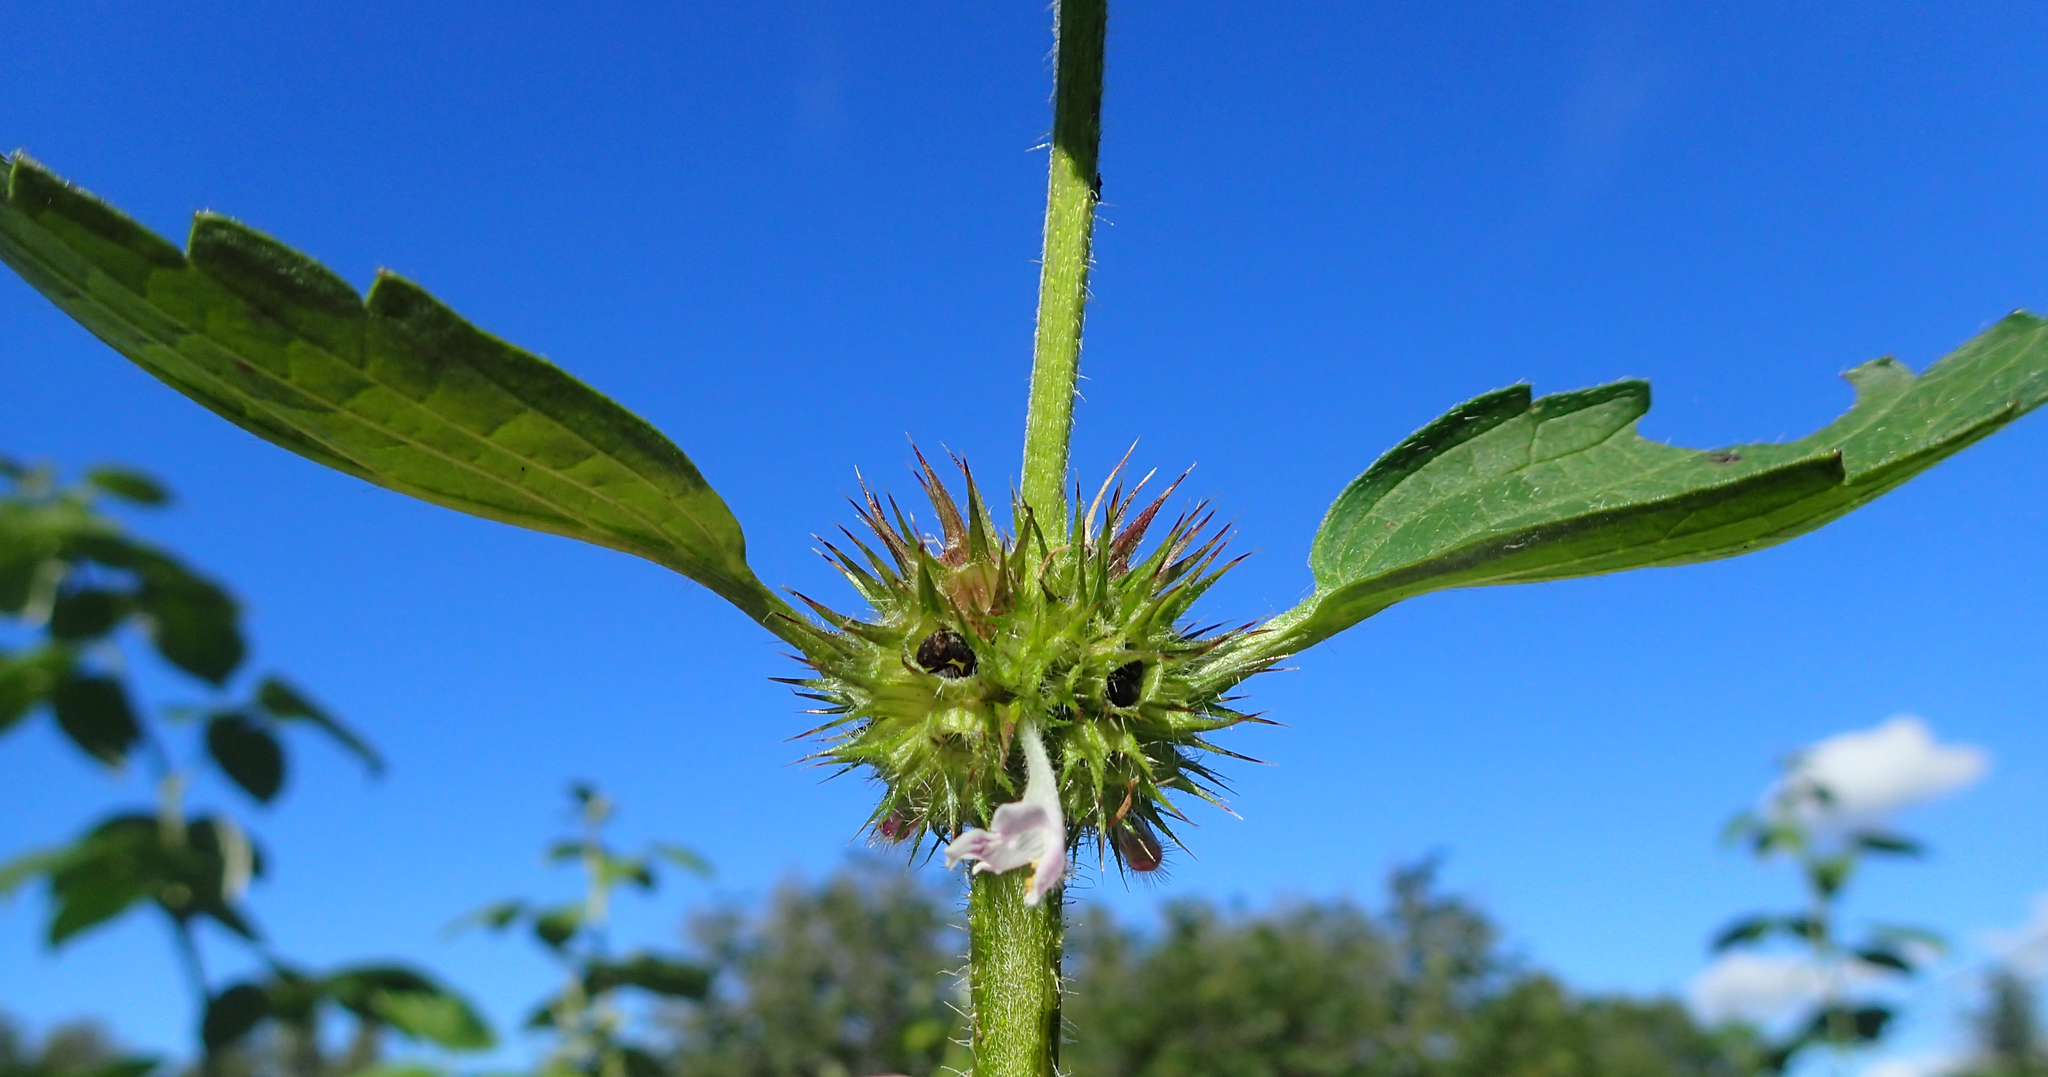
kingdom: Plantae
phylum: Tracheophyta
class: Magnoliopsida
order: Lamiales
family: Lamiaceae
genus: Galeopsis
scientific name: Galeopsis tetrahit
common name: Common hemp-nettle
